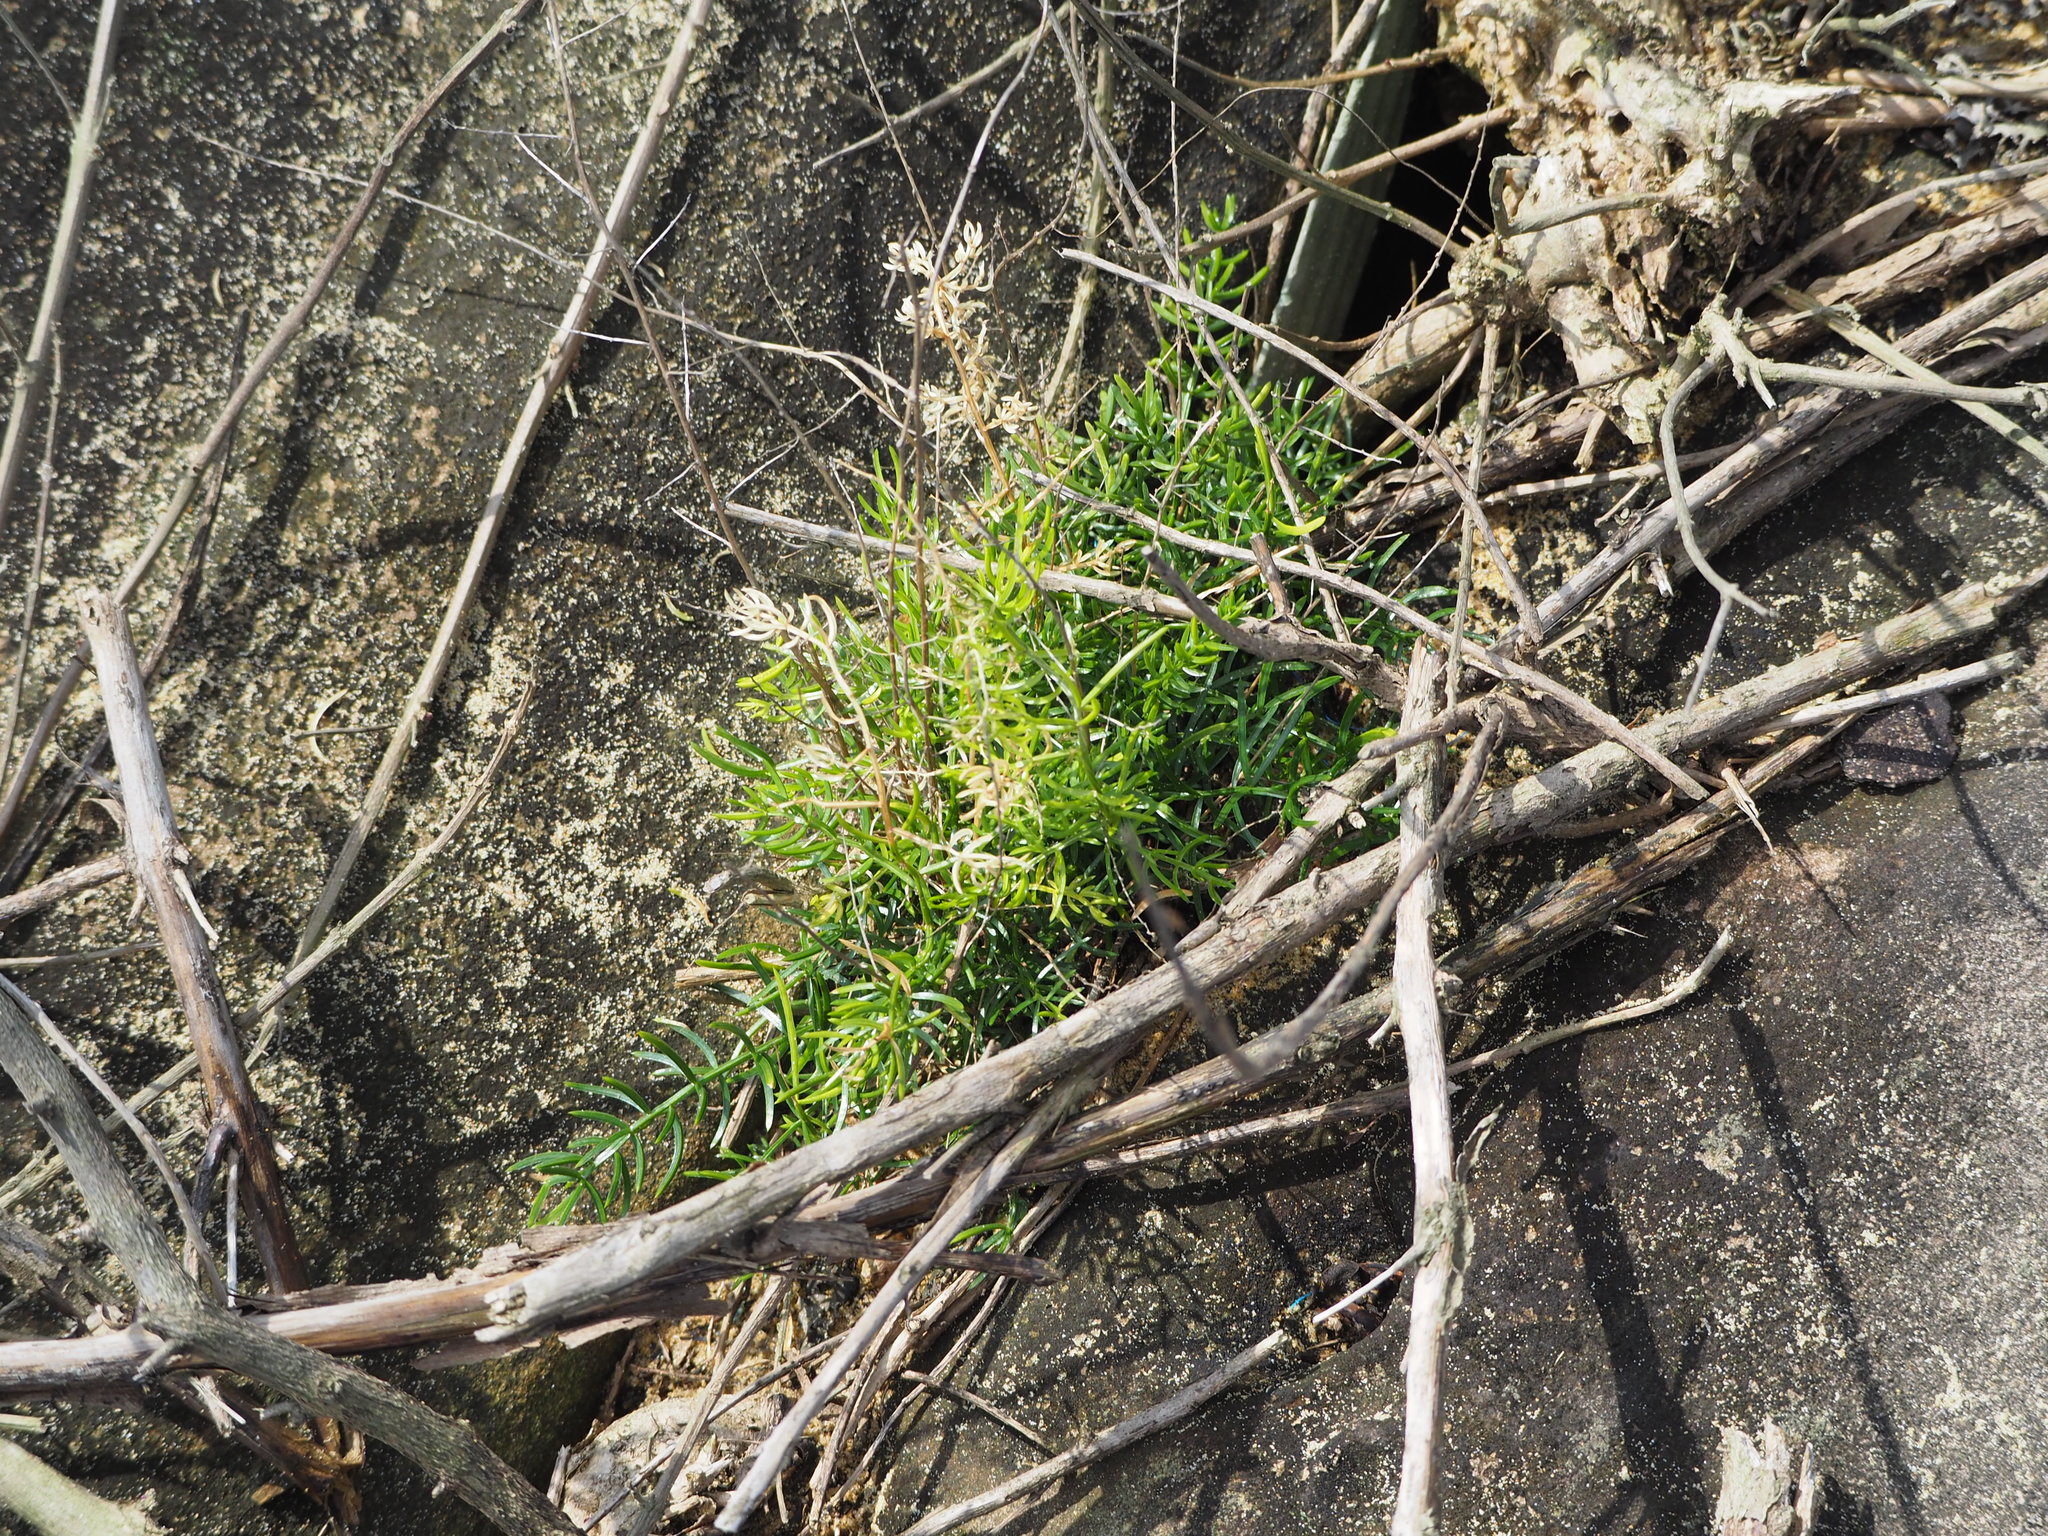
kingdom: Plantae
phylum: Tracheophyta
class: Liliopsida
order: Asparagales
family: Asparagaceae
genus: Asparagus
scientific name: Asparagus cochinchinensis
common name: Chinese asparagus
